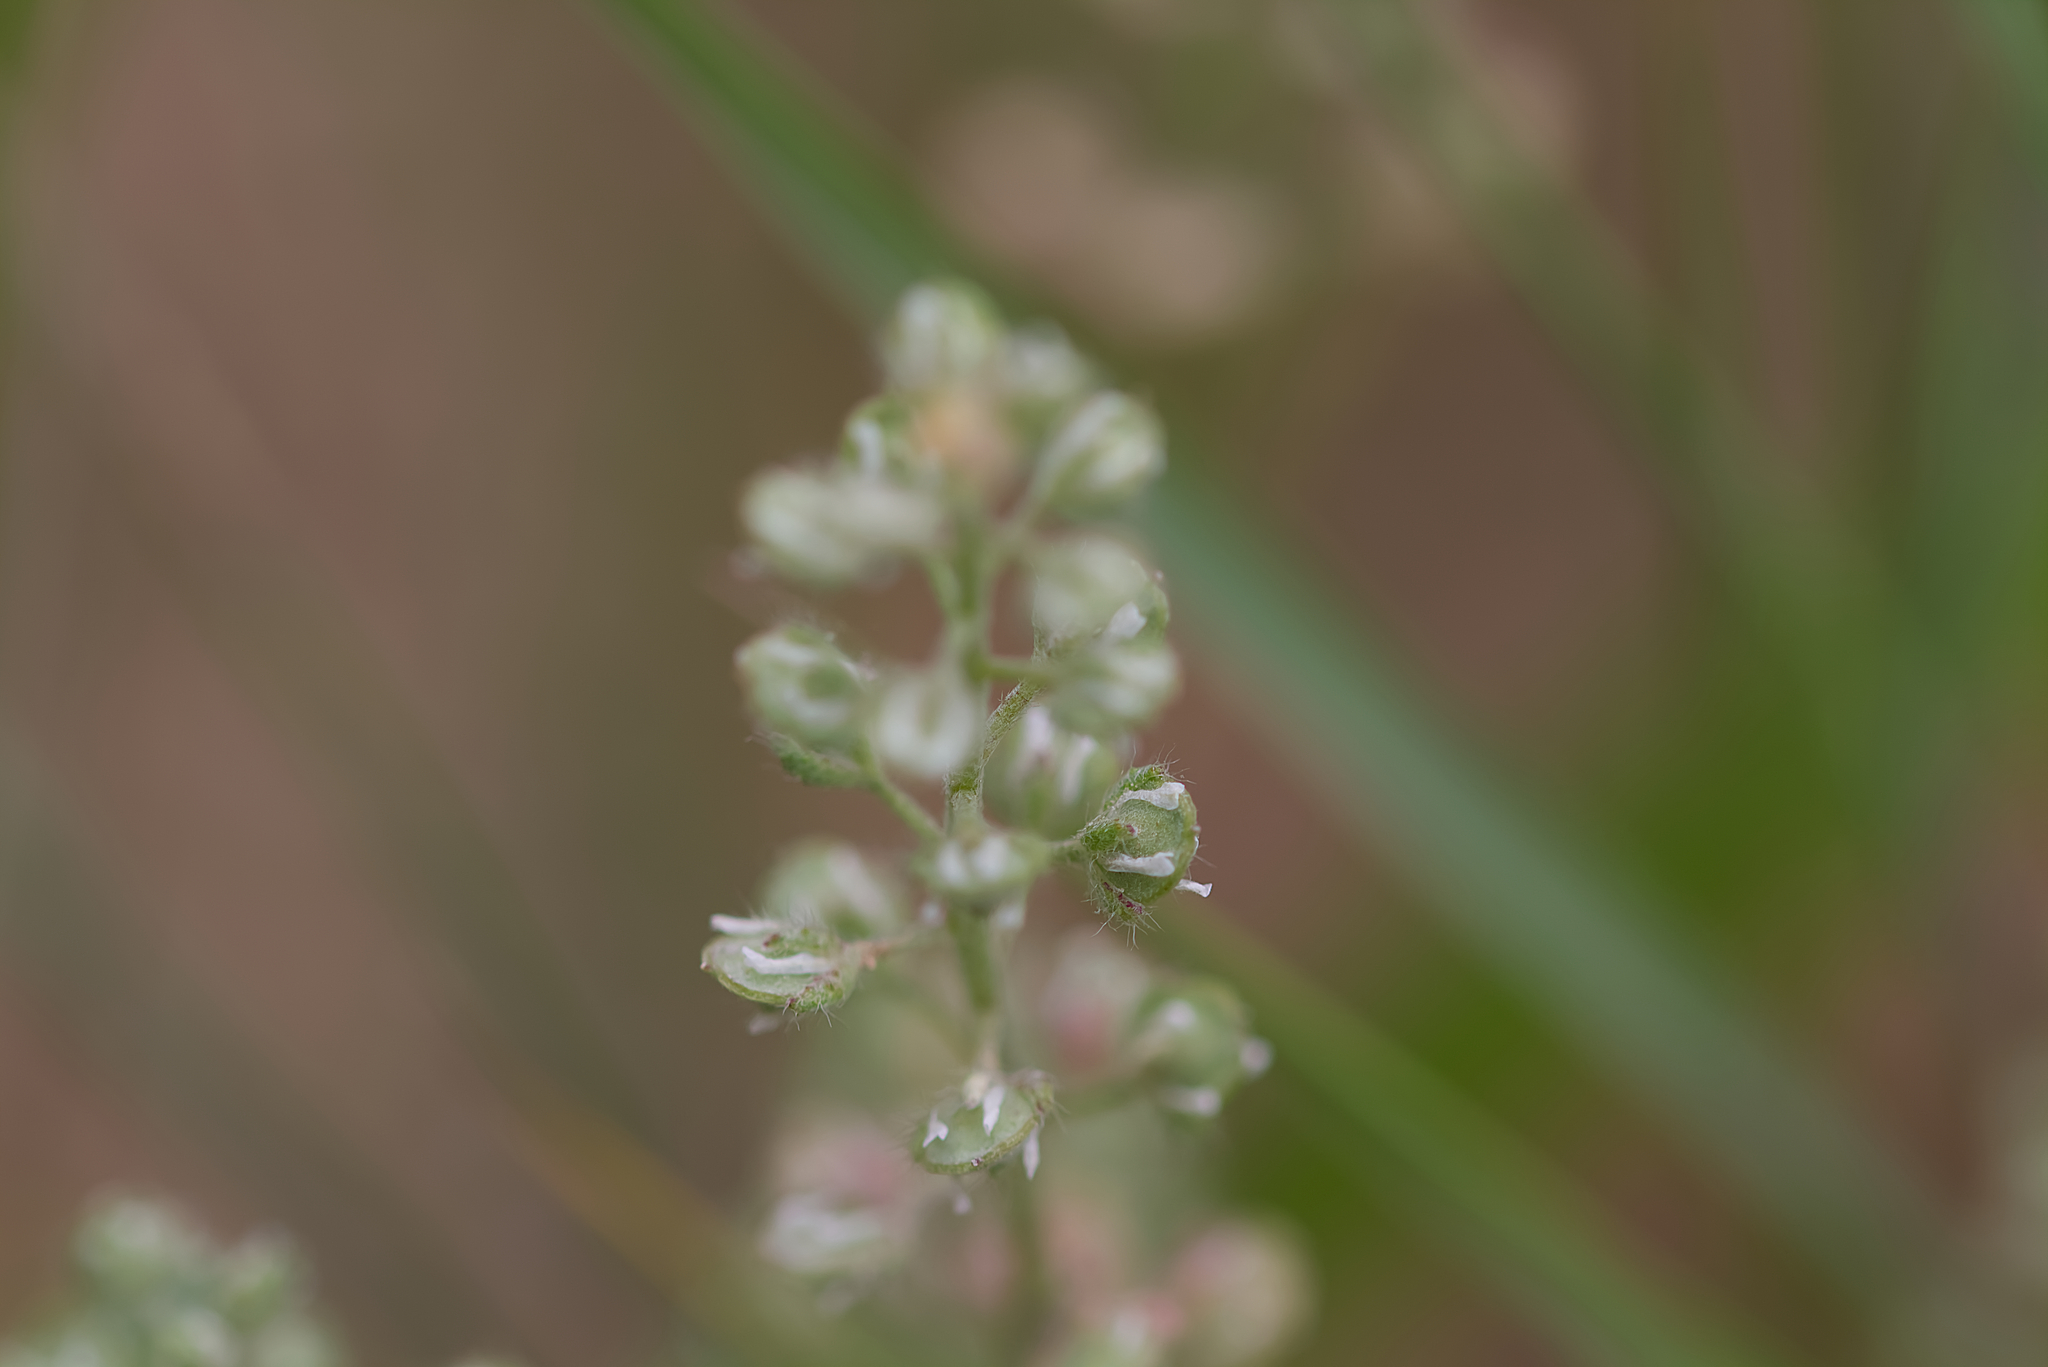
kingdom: Plantae
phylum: Tracheophyta
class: Magnoliopsida
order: Brassicales
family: Brassicaceae
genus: Alyssum
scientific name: Alyssum alyssoides
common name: Small alison
